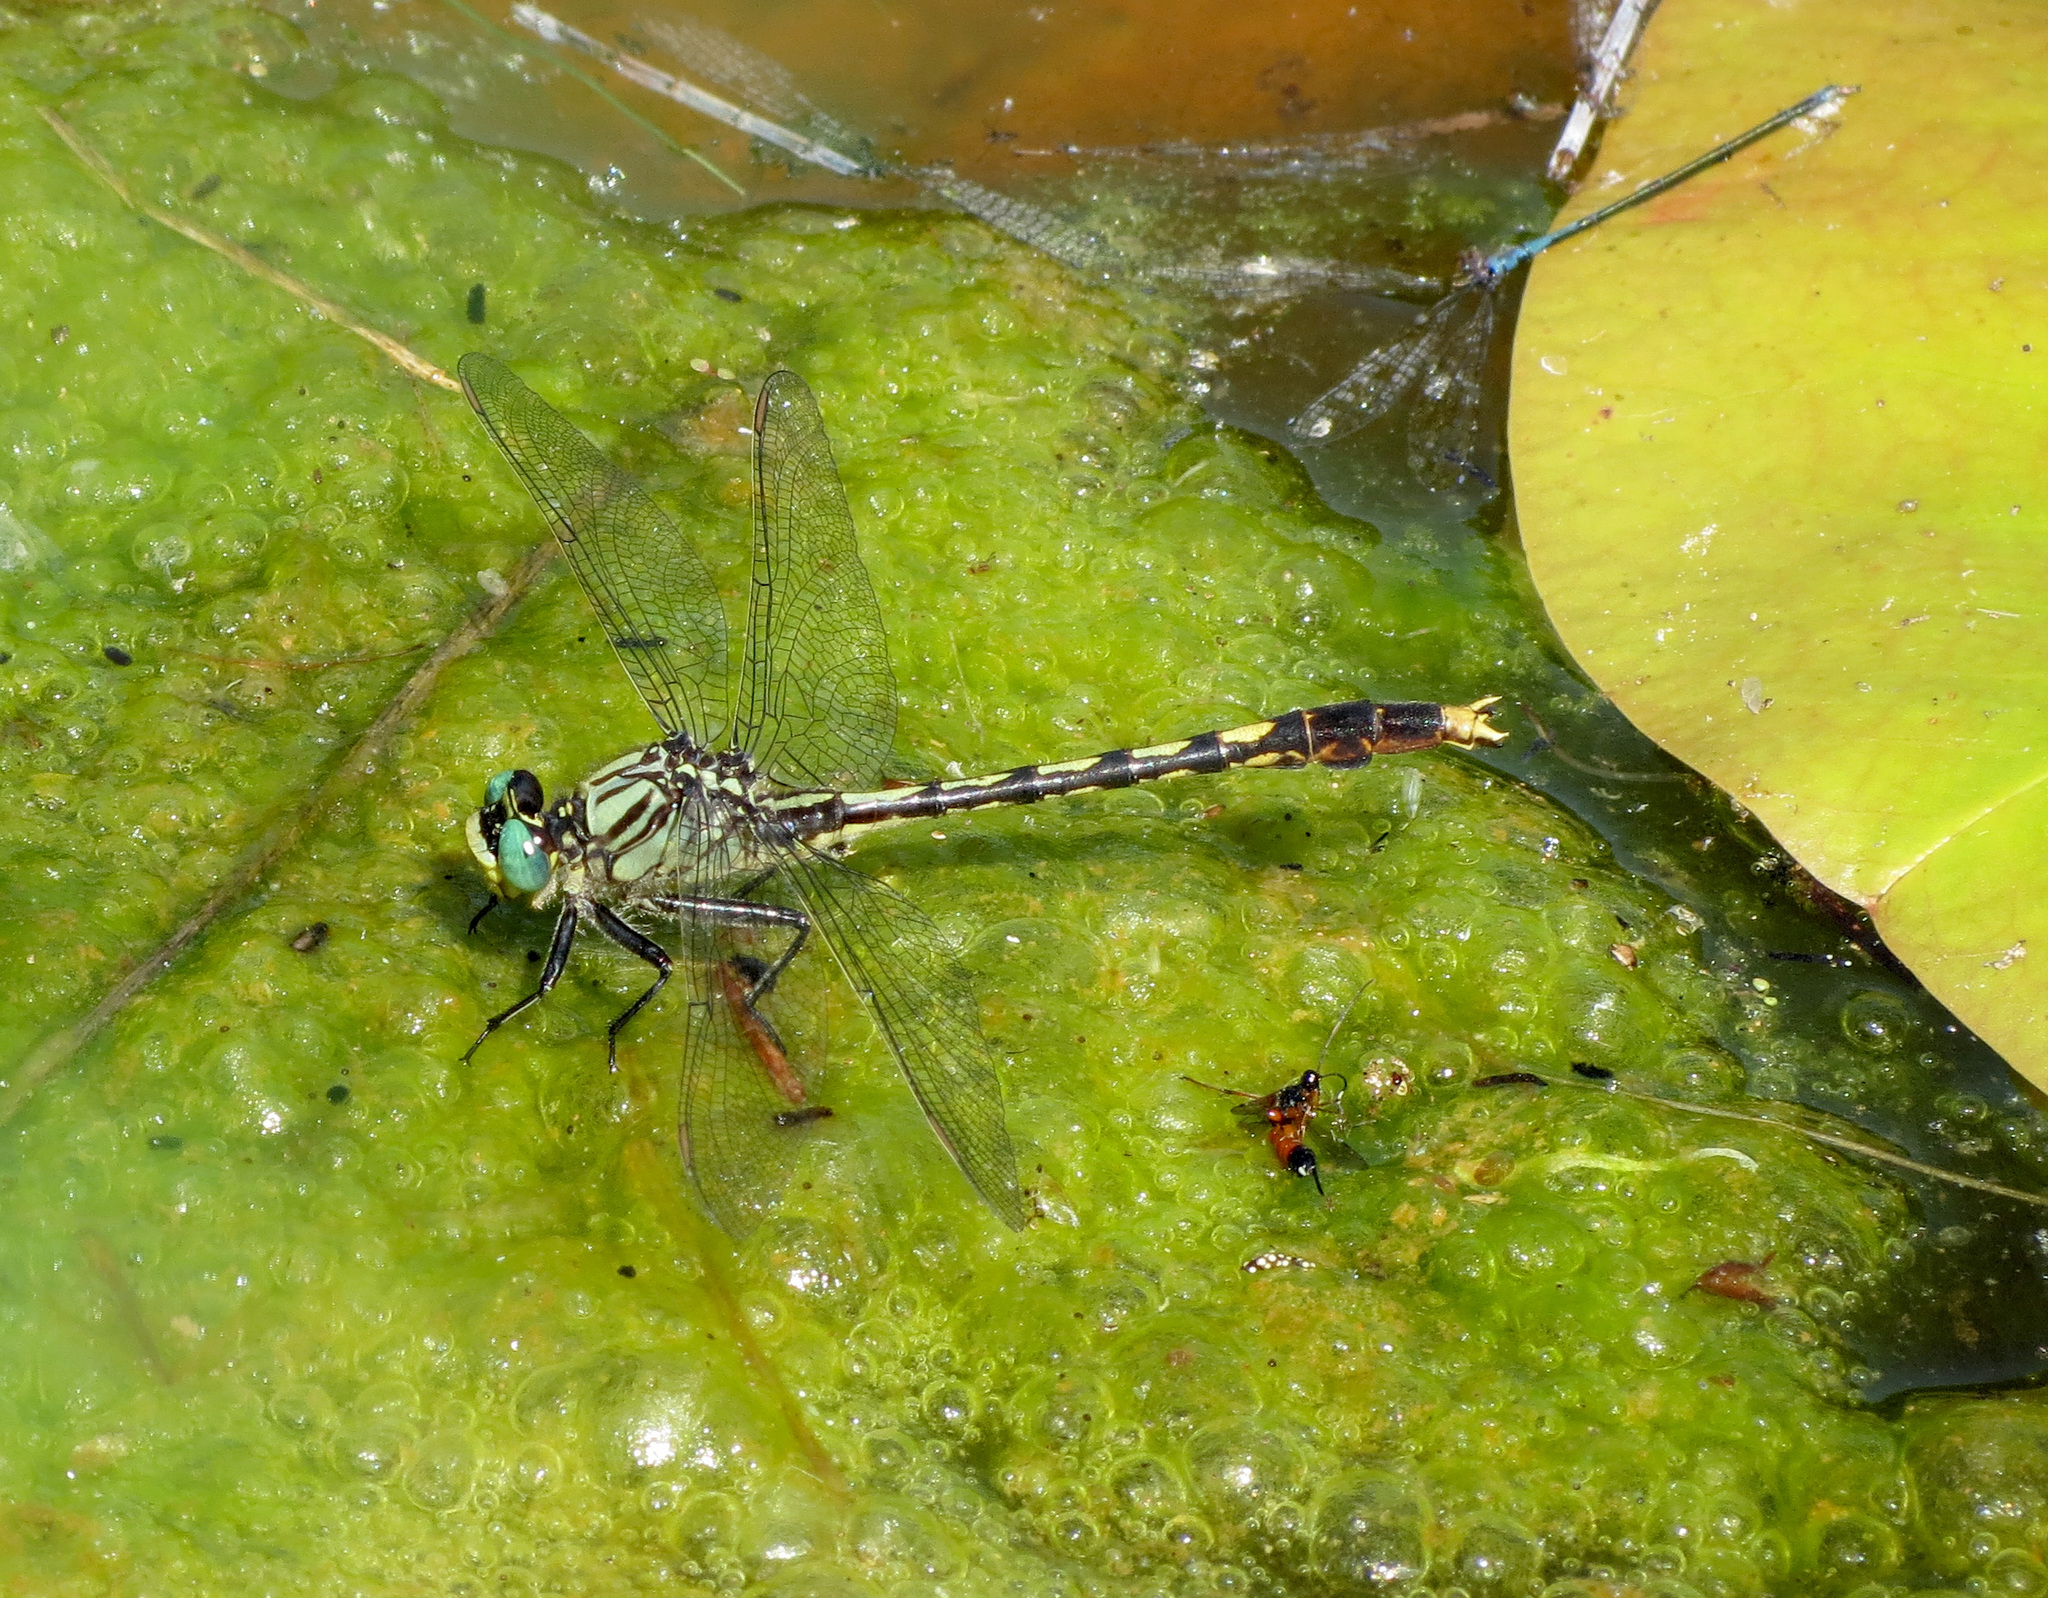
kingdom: Animalia
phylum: Arthropoda
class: Insecta
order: Odonata
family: Gomphidae
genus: Arigomphus
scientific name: Arigomphus villosipes
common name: Unicorn clubtail
